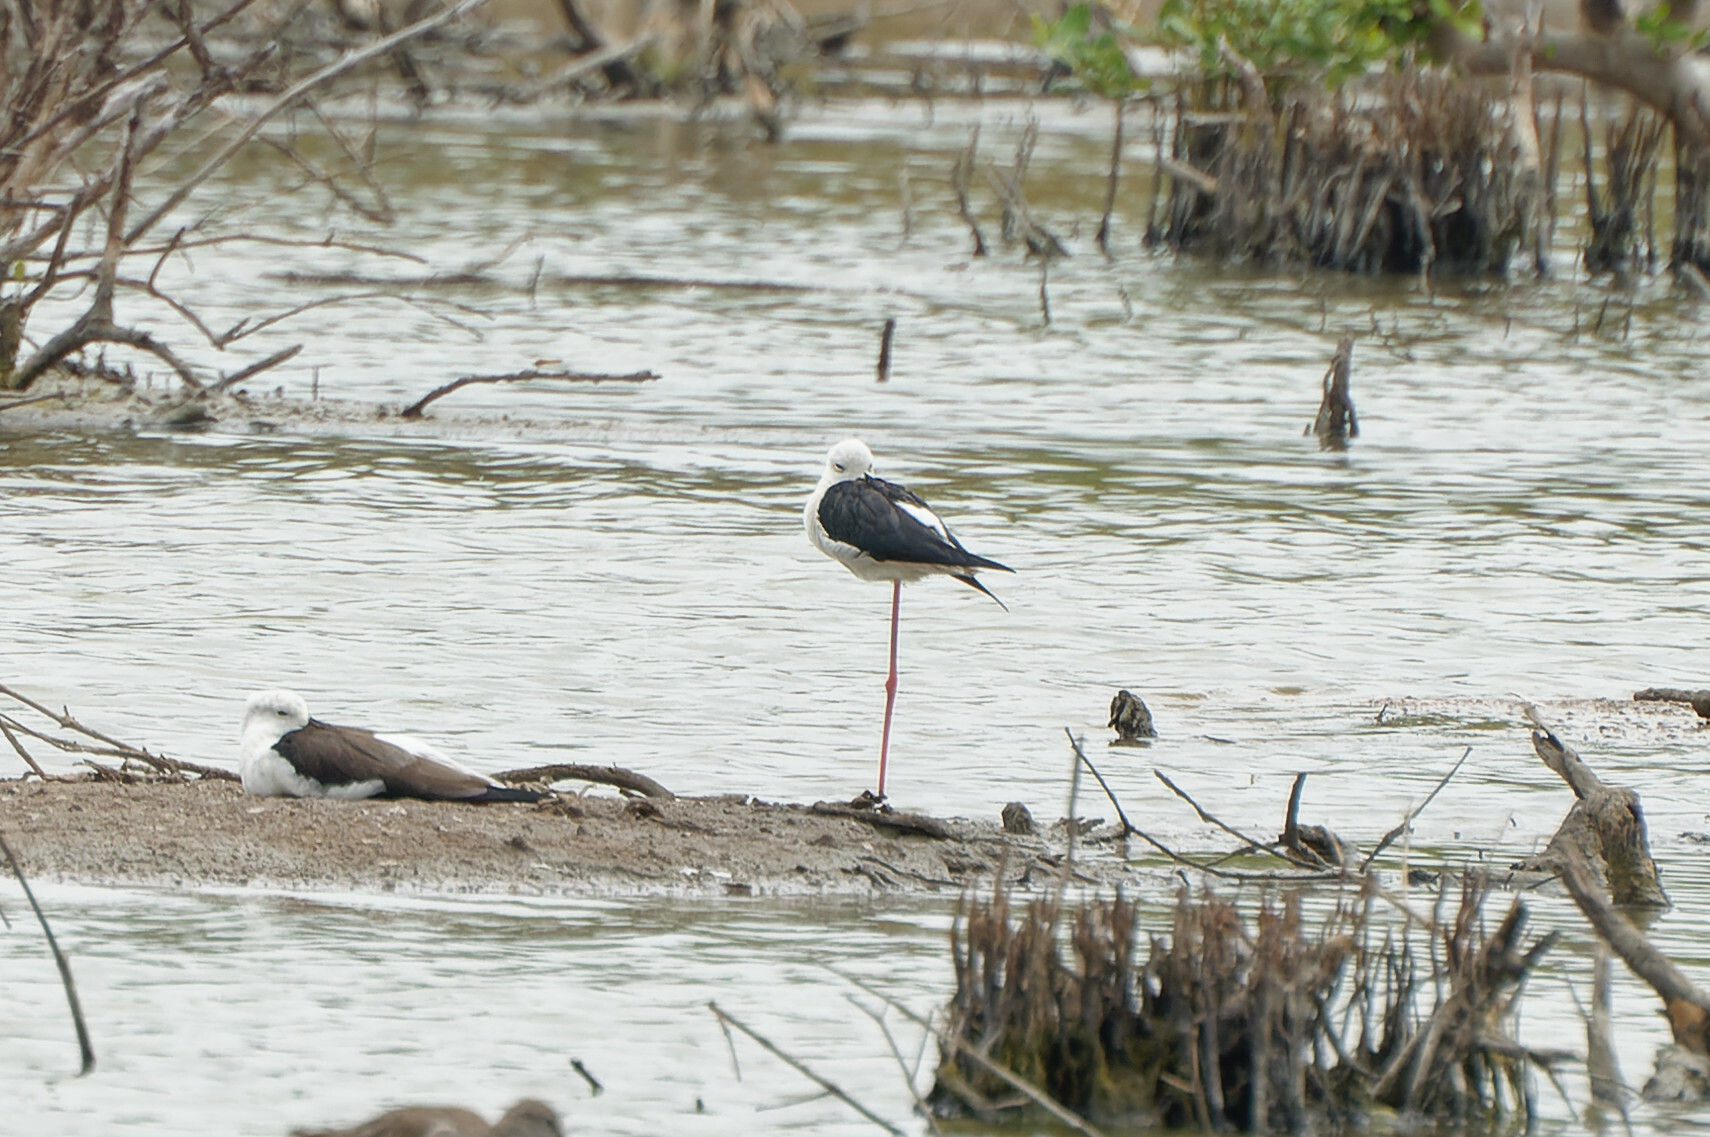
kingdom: Animalia
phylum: Chordata
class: Aves
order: Charadriiformes
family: Recurvirostridae
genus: Himantopus
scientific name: Himantopus himantopus
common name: Black-winged stilt
